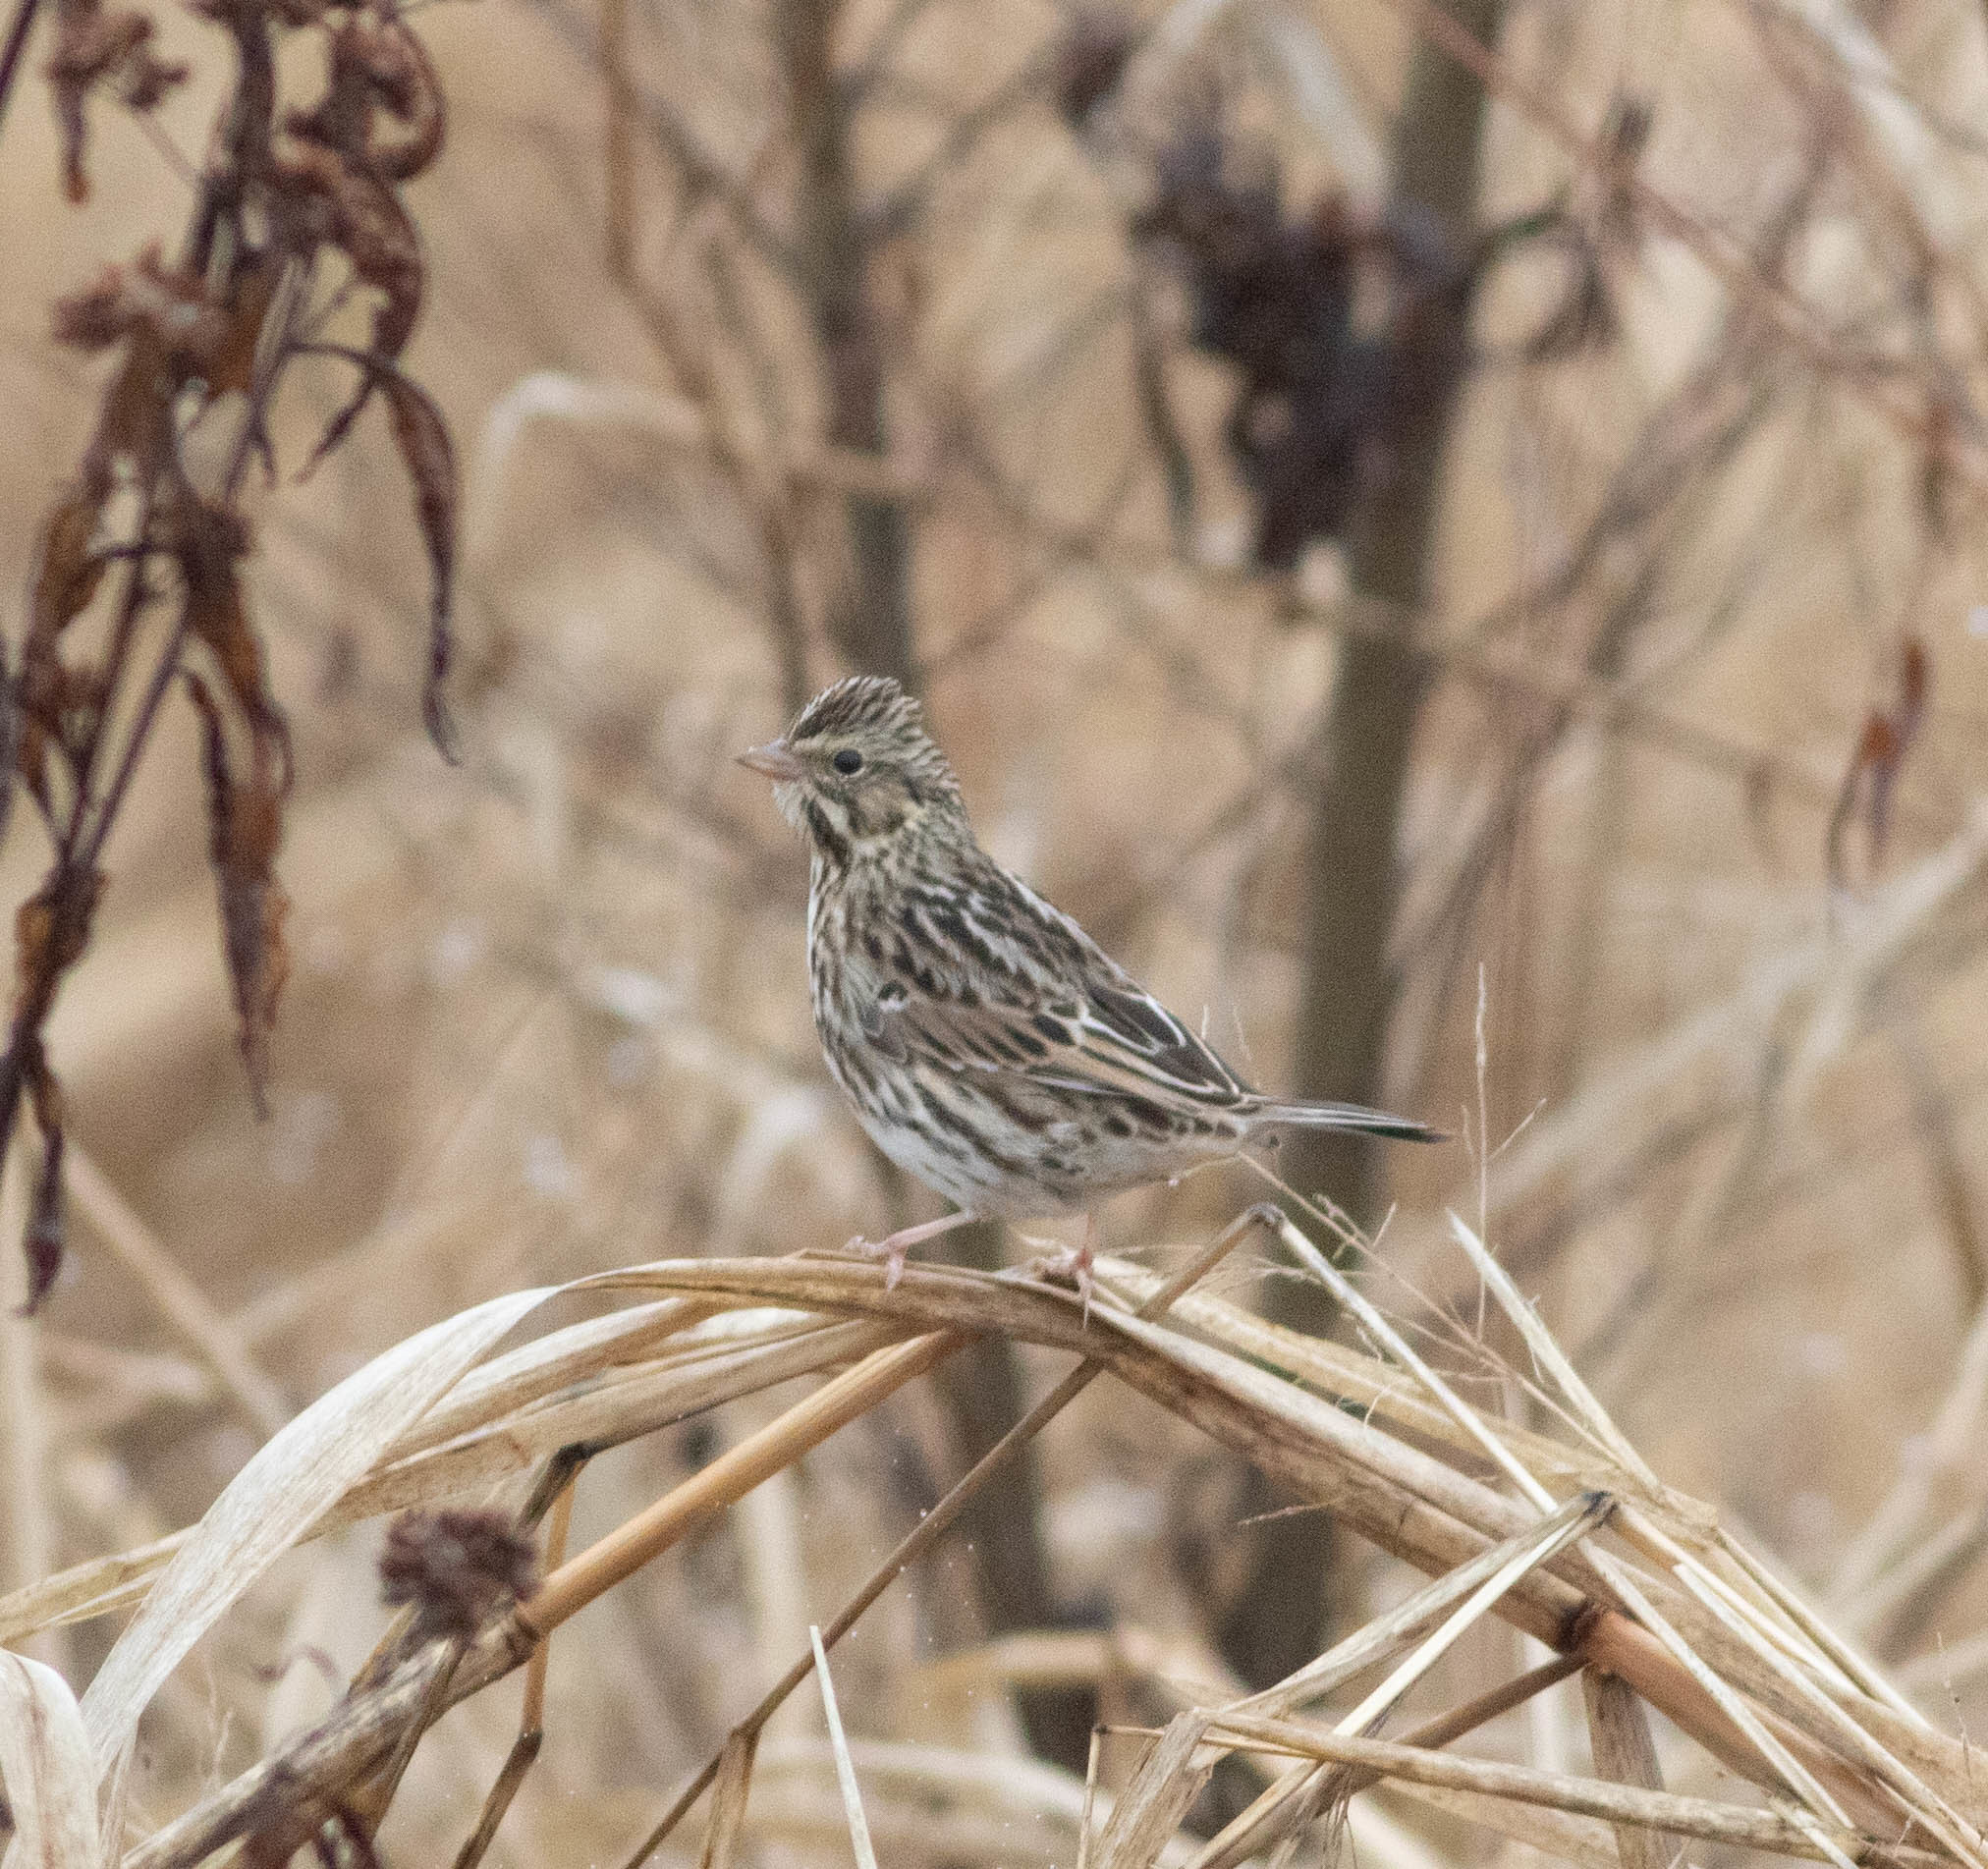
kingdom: Animalia
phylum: Chordata
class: Aves
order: Passeriformes
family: Passerellidae
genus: Passerculus
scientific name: Passerculus sandwichensis
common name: Savannah sparrow
